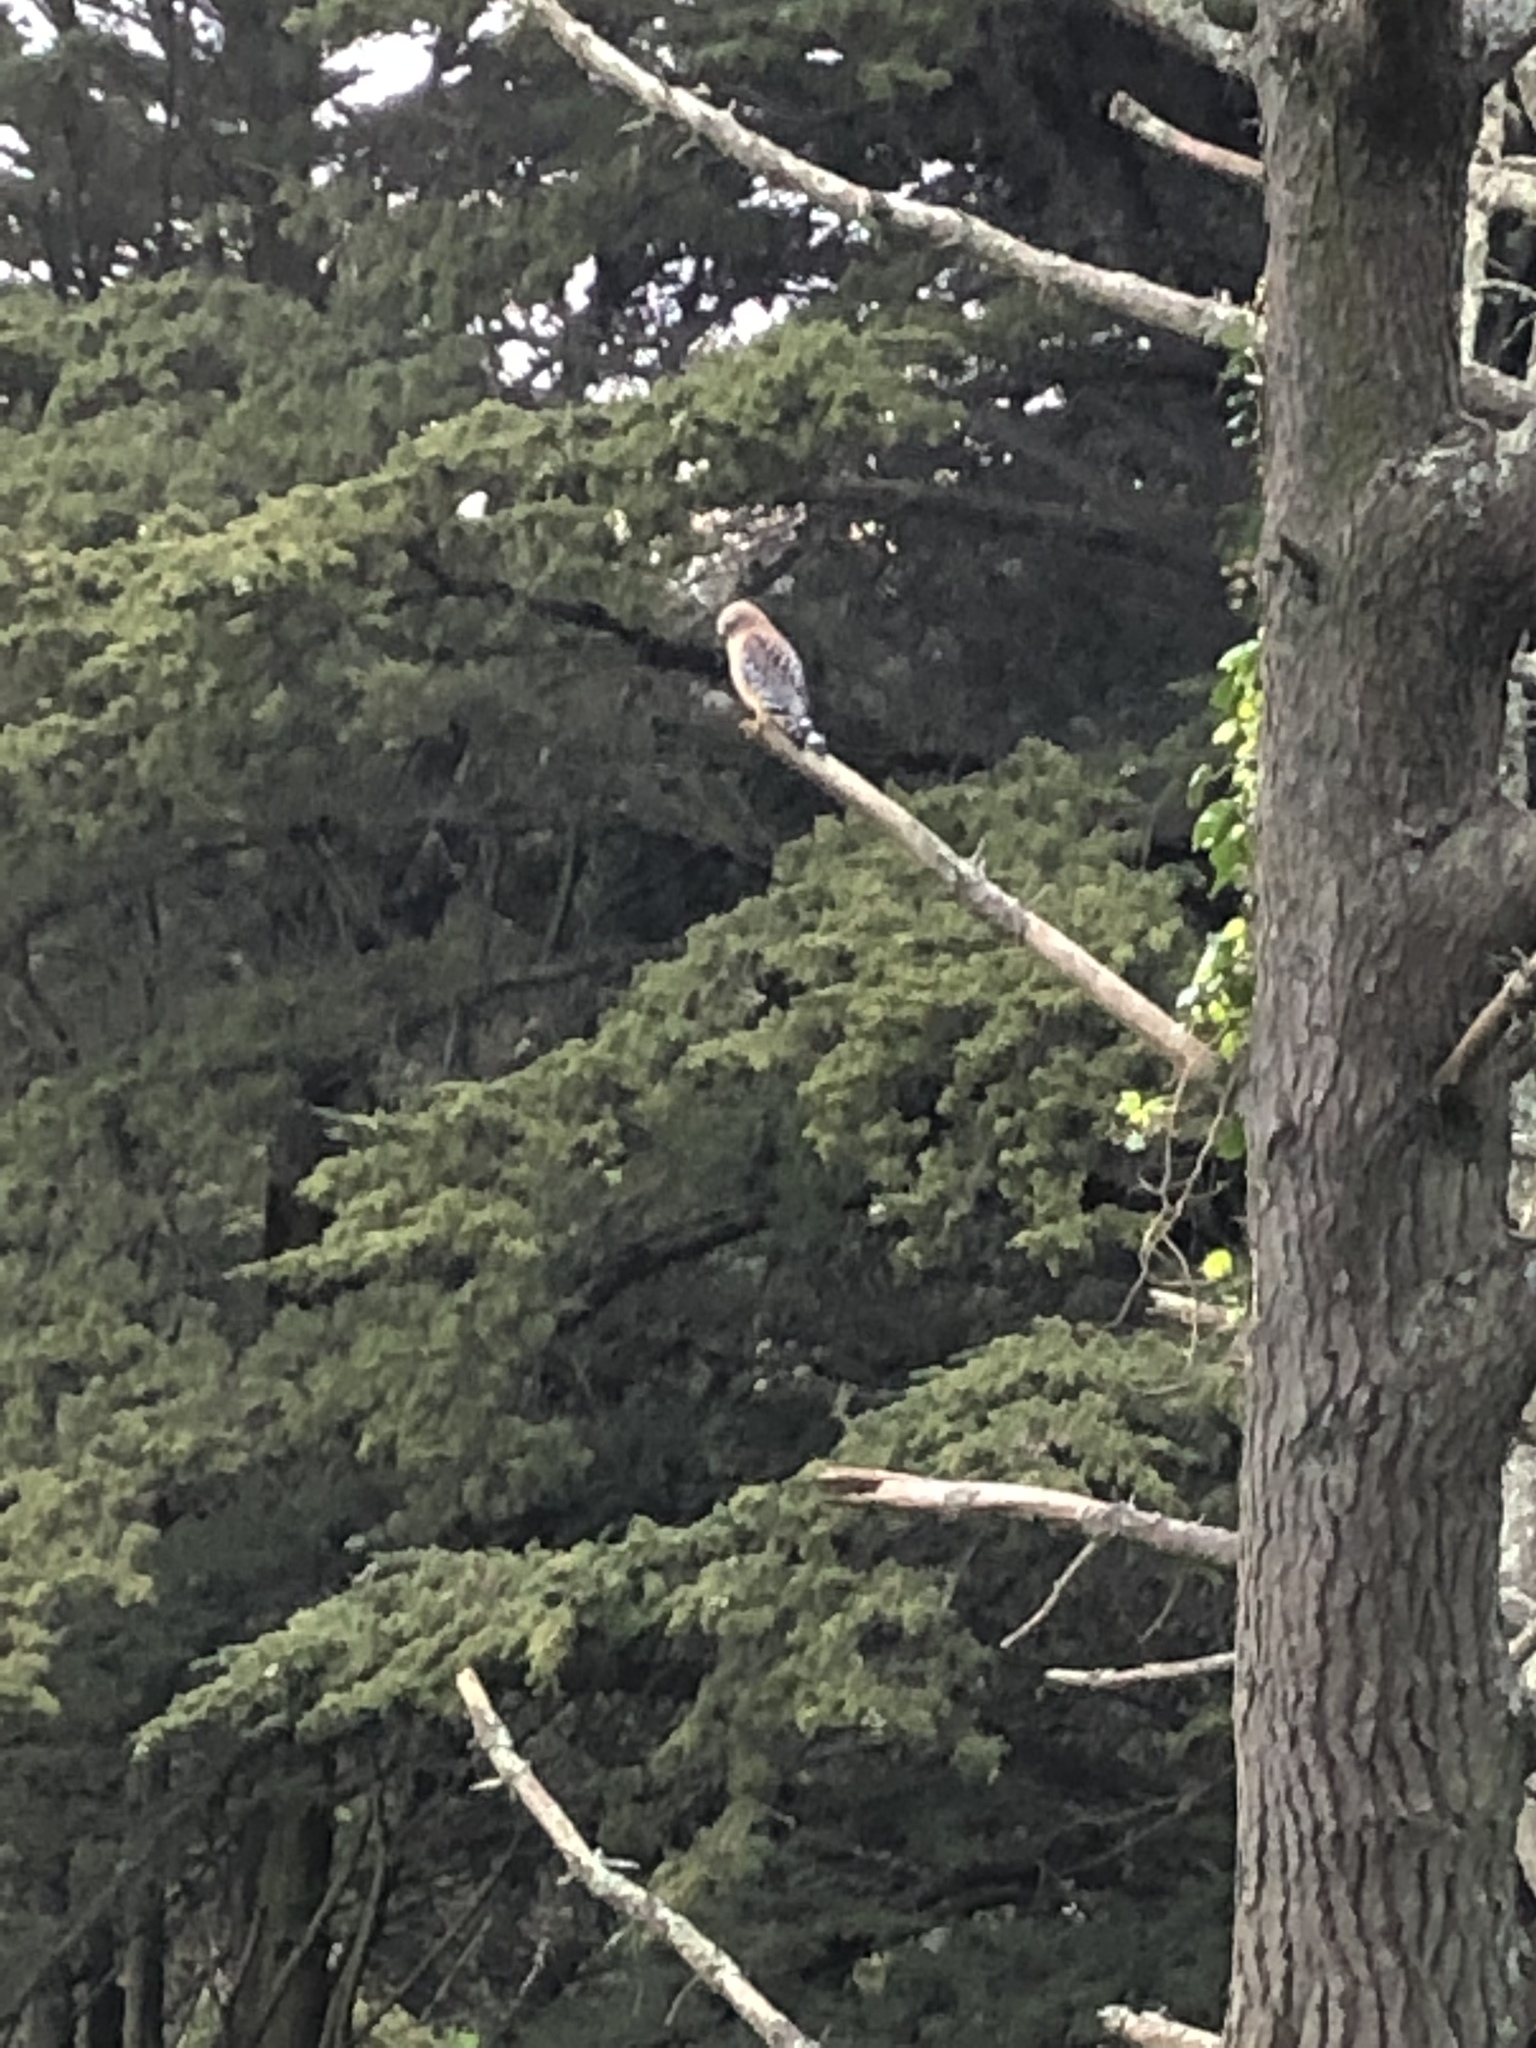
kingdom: Animalia
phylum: Chordata
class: Aves
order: Accipitriformes
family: Accipitridae
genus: Buteo
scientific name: Buteo lineatus
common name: Red-shouldered hawk
